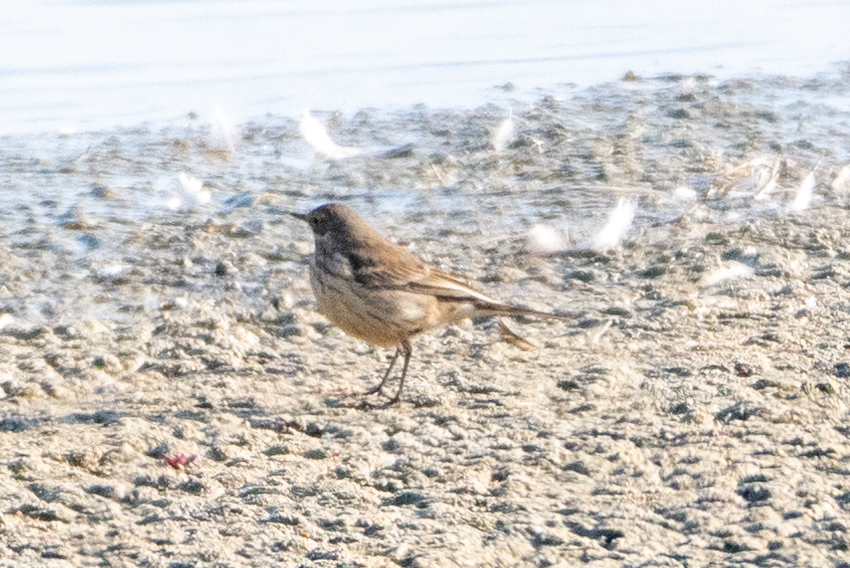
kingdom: Animalia
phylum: Chordata
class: Aves
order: Passeriformes
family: Motacillidae
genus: Anthus
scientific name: Anthus rubescens
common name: Buff-bellied pipit
